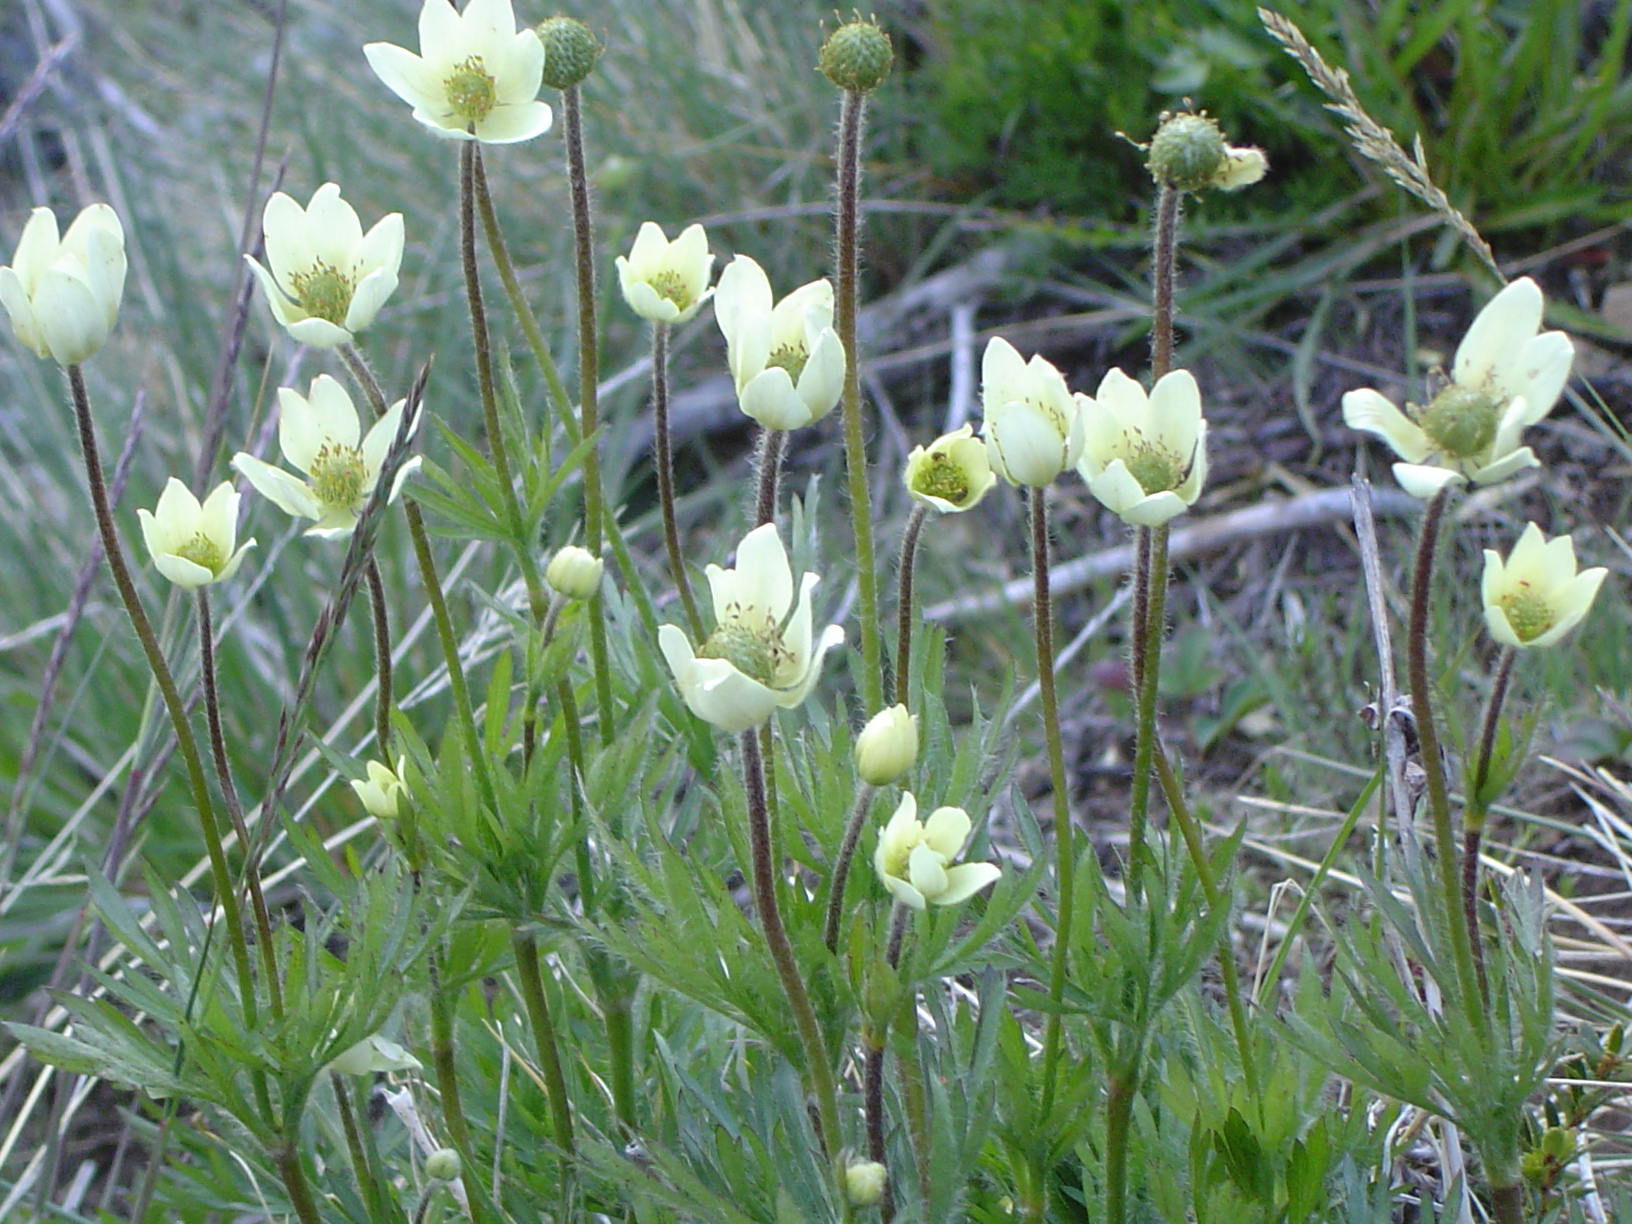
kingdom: Plantae
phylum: Tracheophyta
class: Magnoliopsida
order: Ranunculales
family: Ranunculaceae
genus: Anemone
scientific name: Anemone multifida
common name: Bird's-foot anemone
